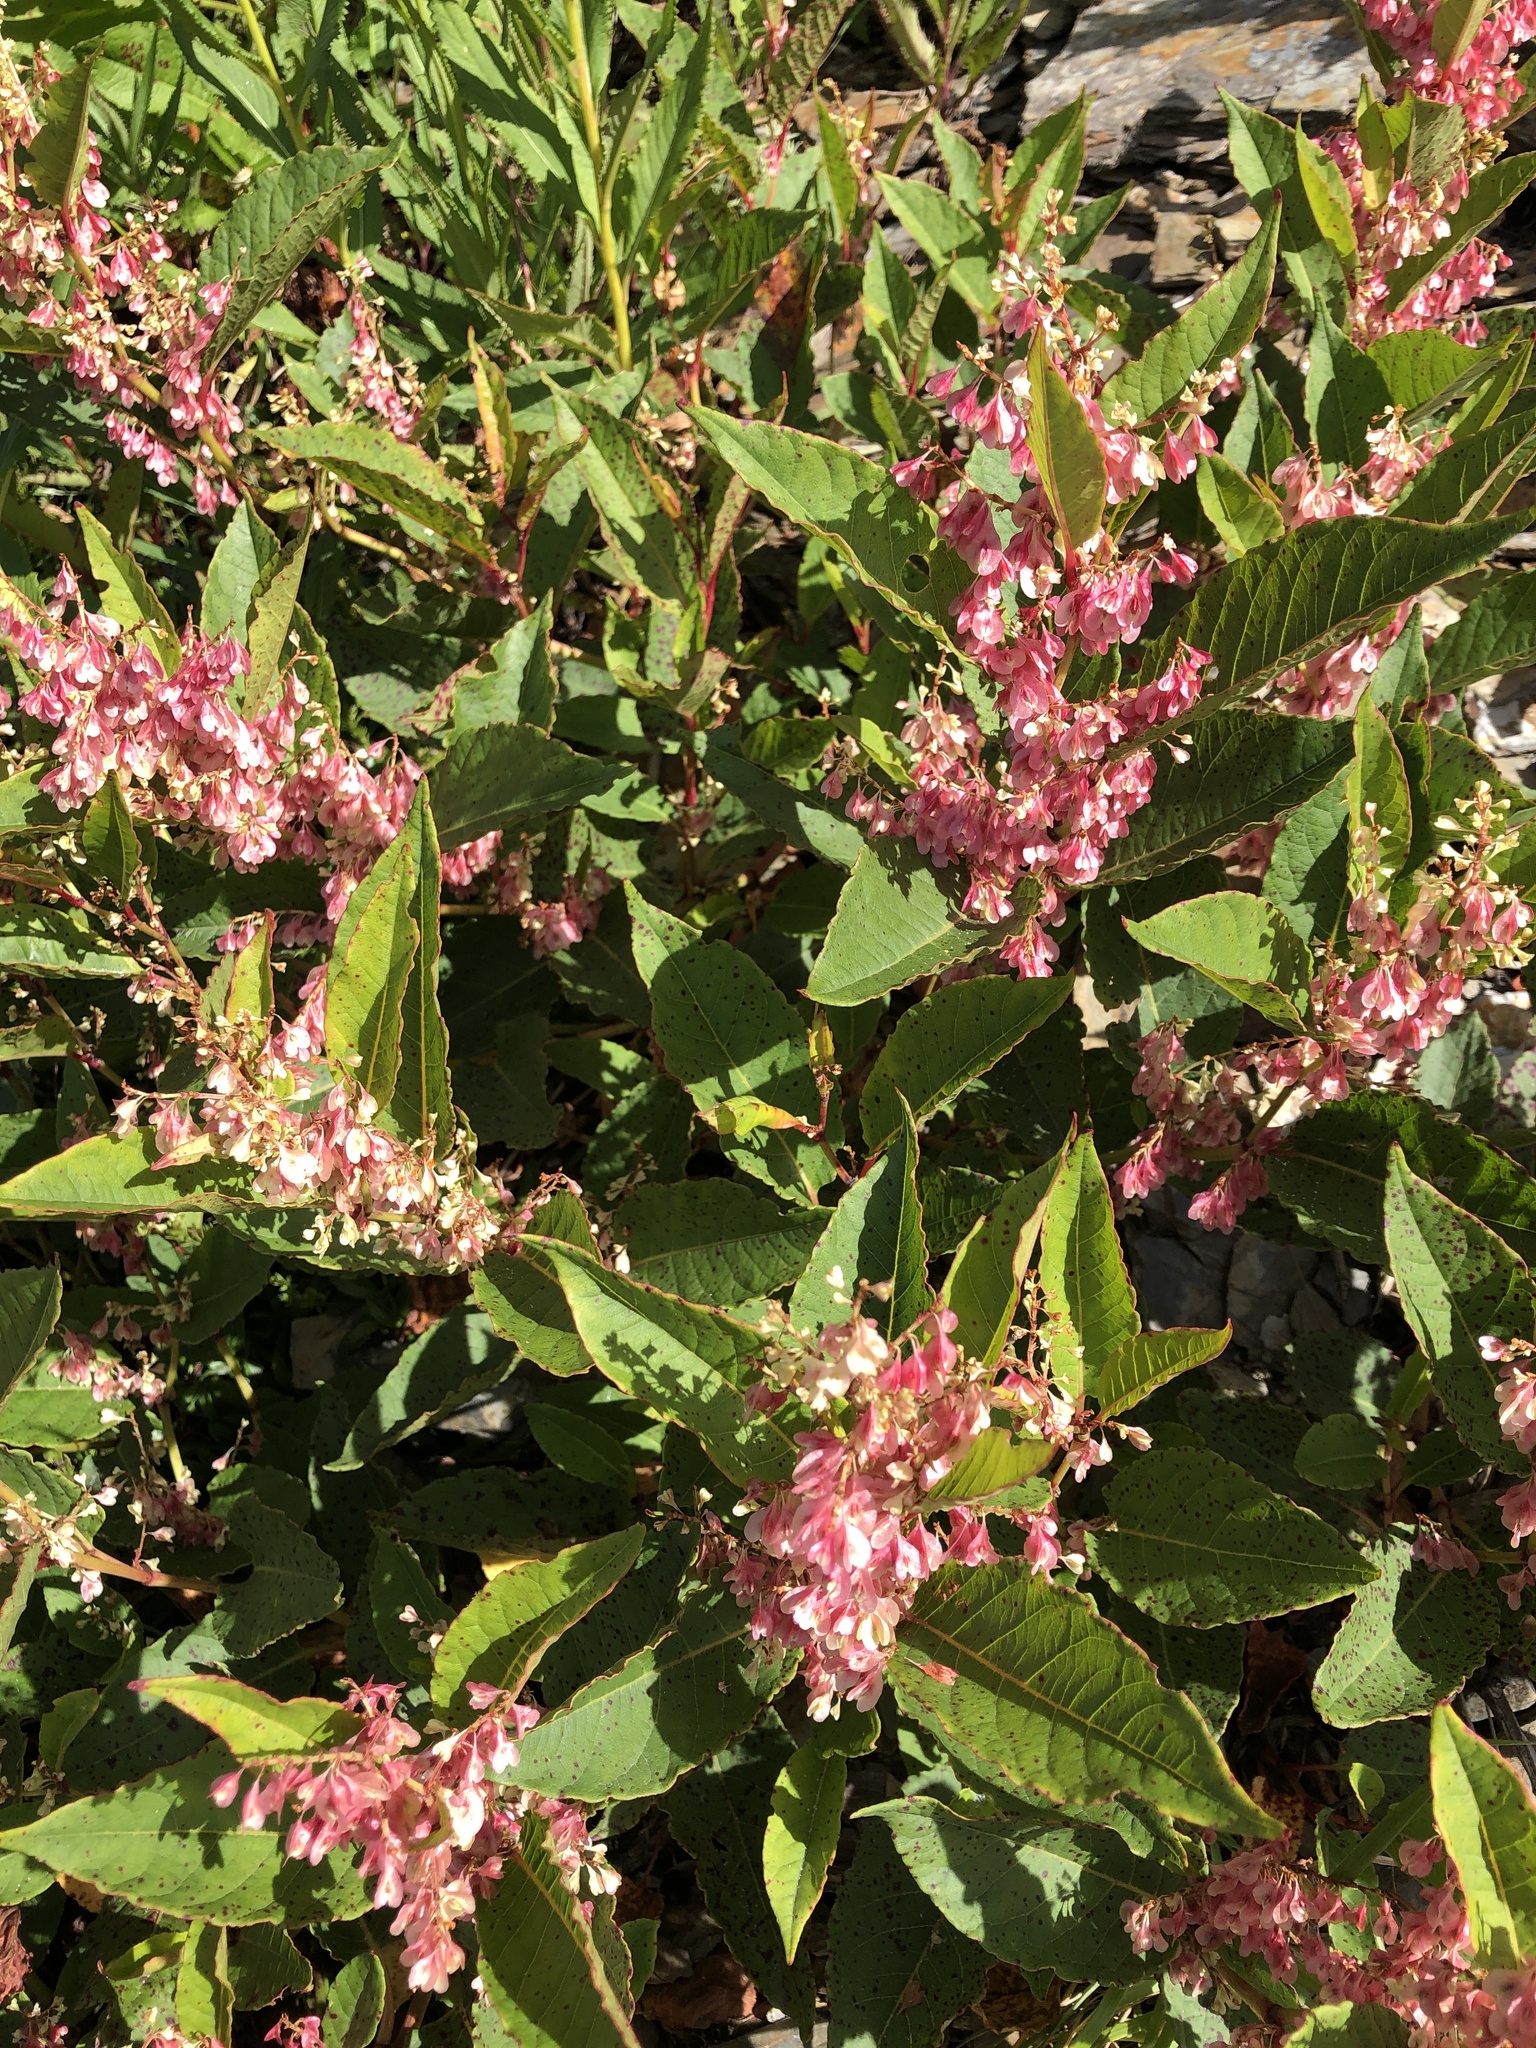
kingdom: Plantae
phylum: Tracheophyta
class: Magnoliopsida
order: Caryophyllales
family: Polygonaceae
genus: Reynoutria
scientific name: Reynoutria japonica
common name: Japanese knotweed
